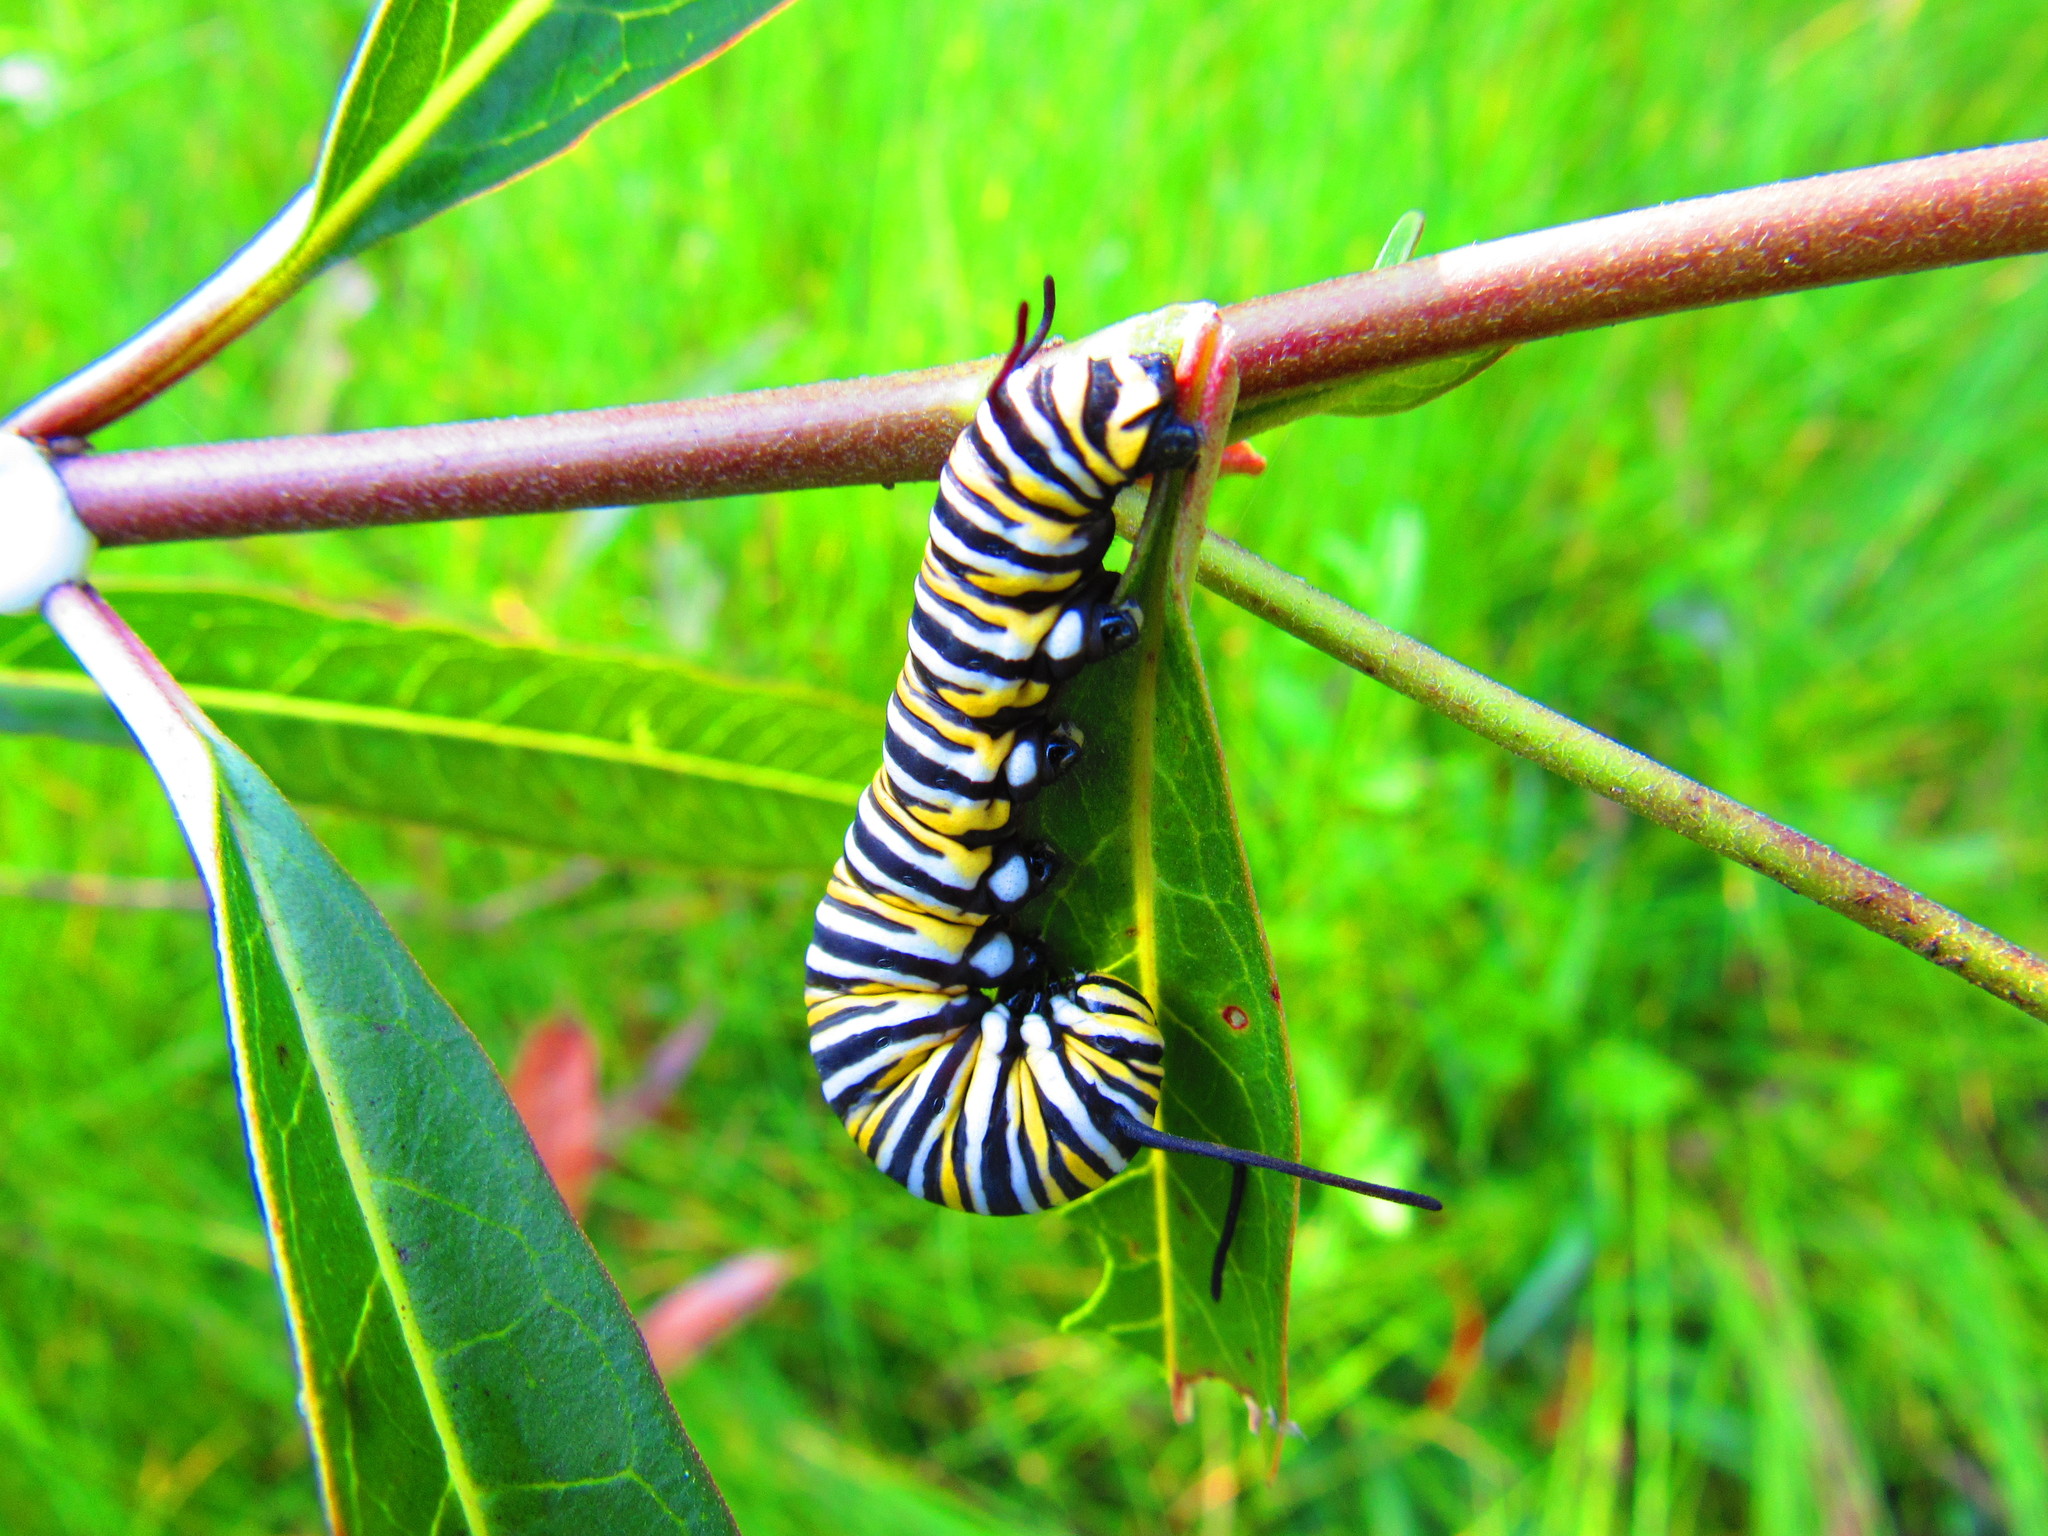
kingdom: Animalia
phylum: Arthropoda
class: Insecta
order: Lepidoptera
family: Nymphalidae
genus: Danaus
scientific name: Danaus plexippus
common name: Monarch
